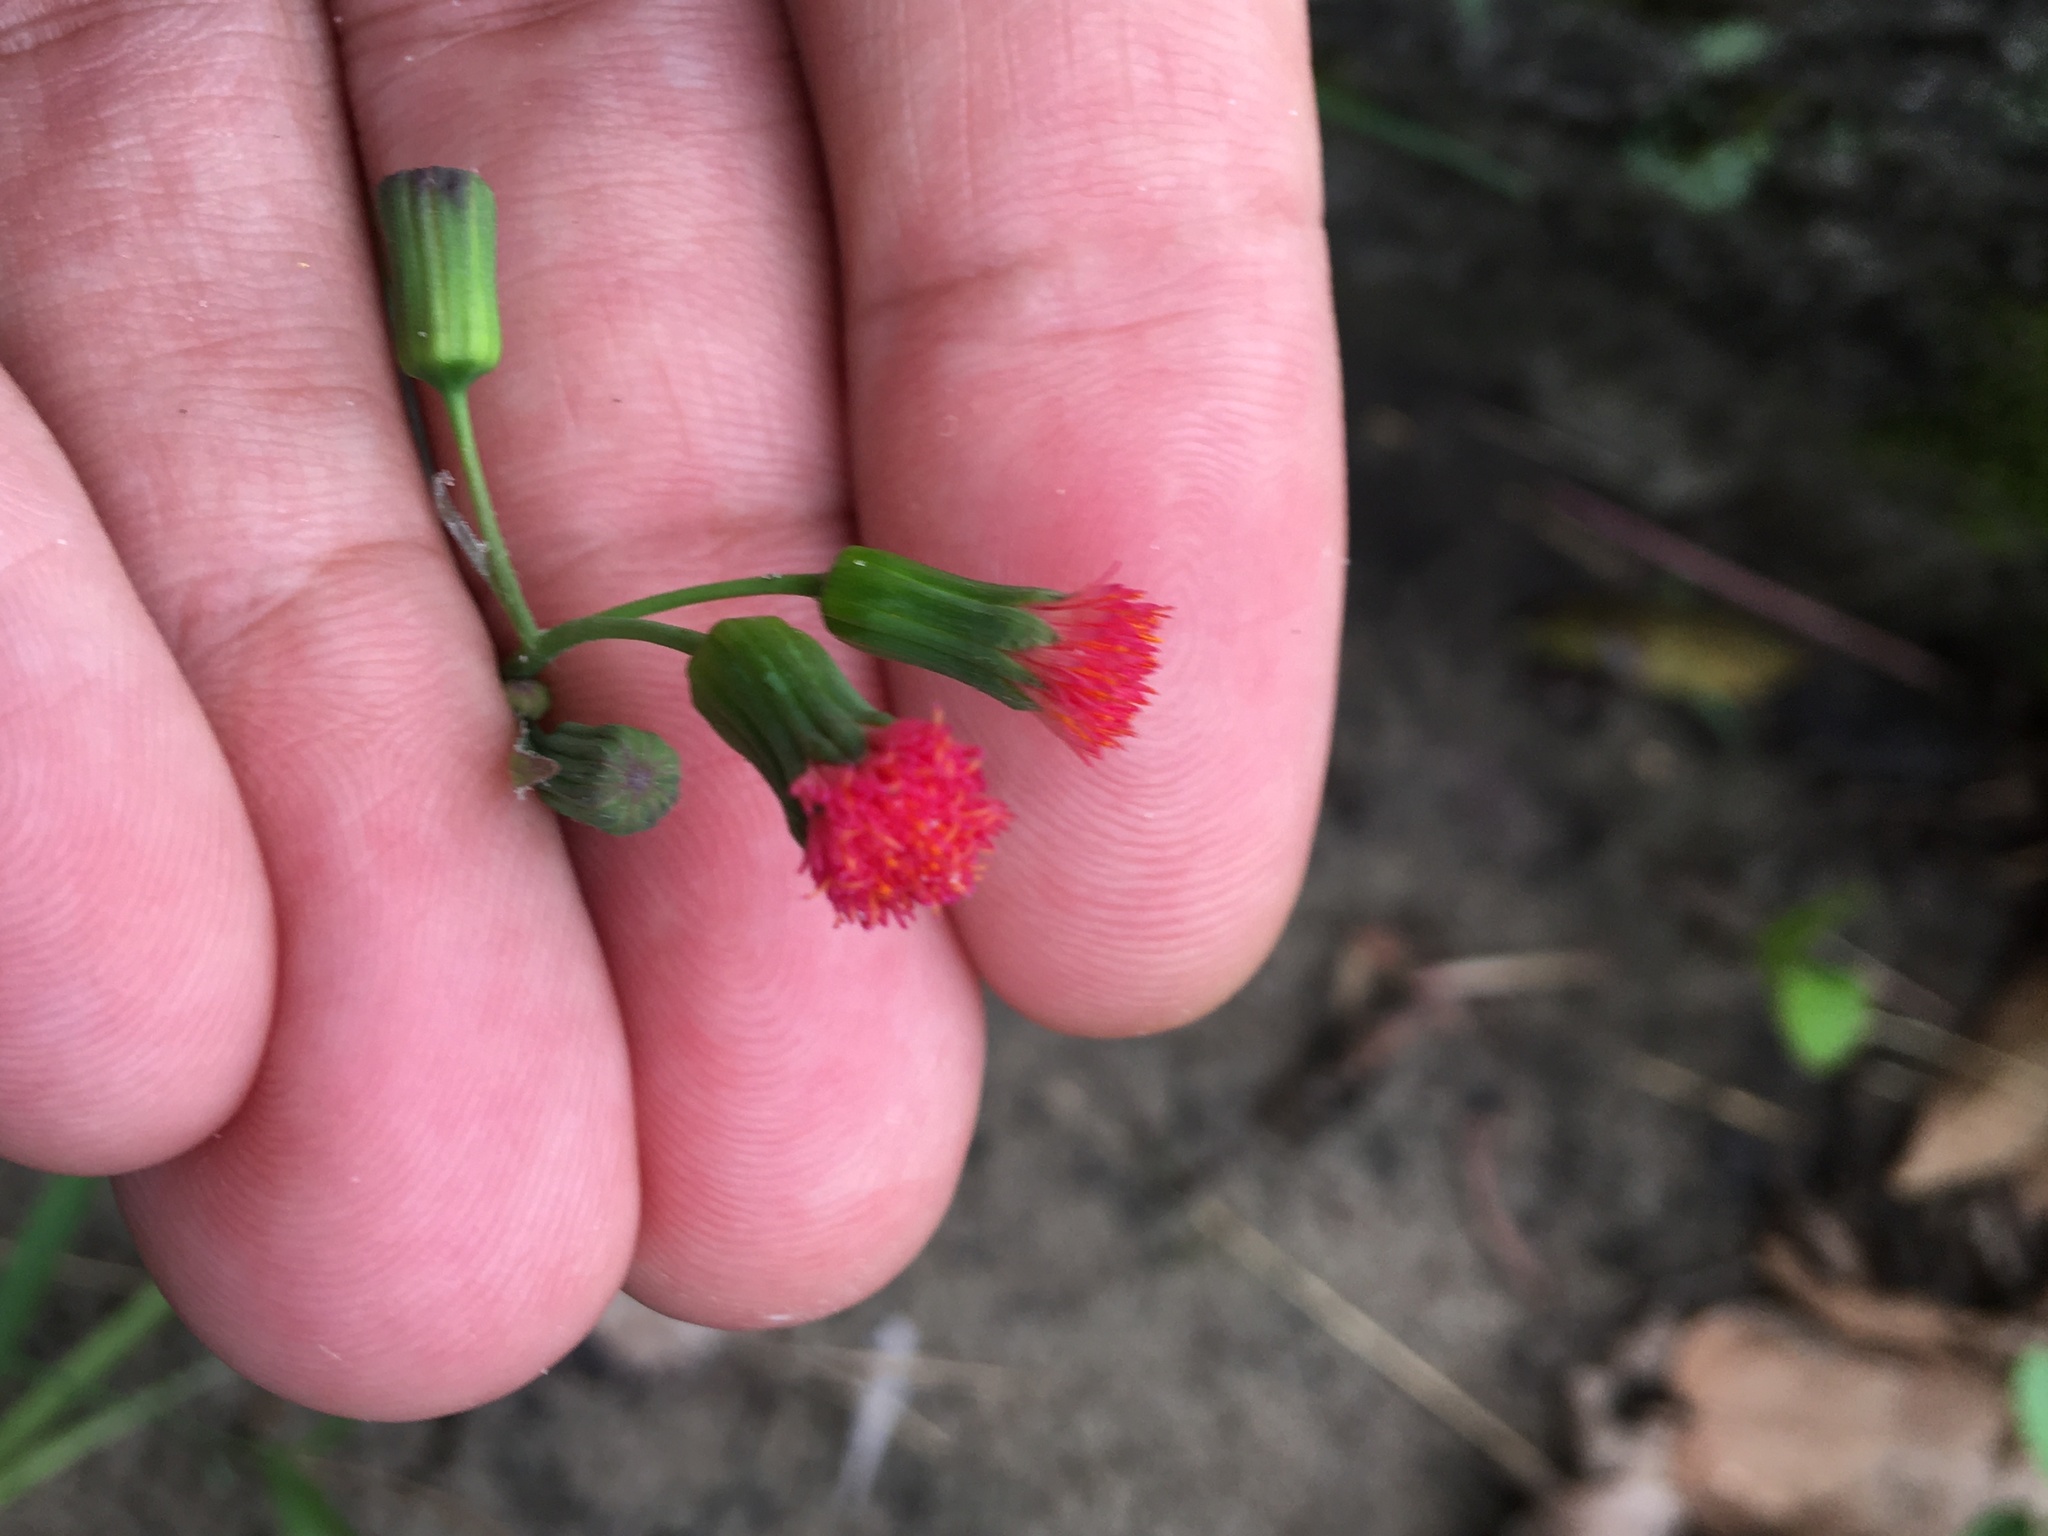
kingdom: Plantae
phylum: Tracheophyta
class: Magnoliopsida
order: Asterales
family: Asteraceae
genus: Emilia
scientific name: Emilia fosbergii
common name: Florida tasselflower
